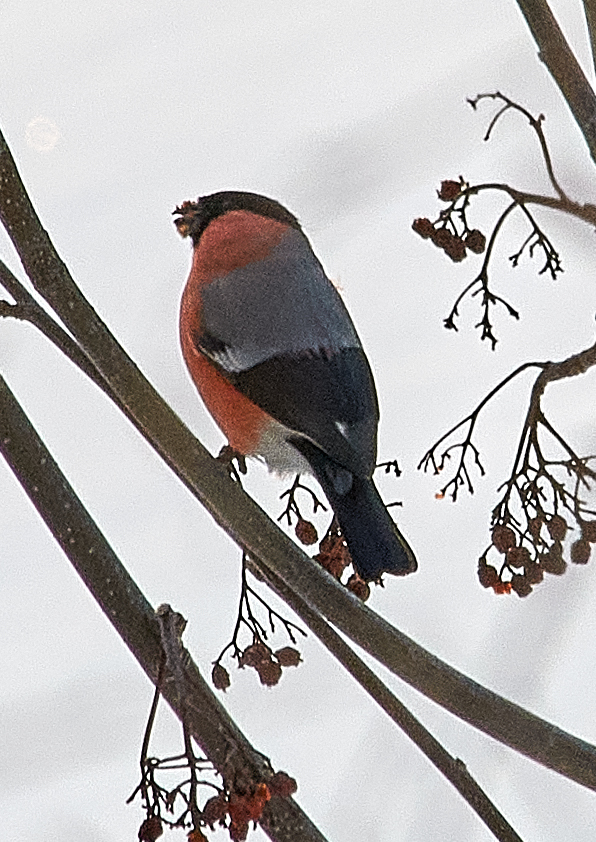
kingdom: Animalia
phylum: Chordata
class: Aves
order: Passeriformes
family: Fringillidae
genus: Pyrrhula
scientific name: Pyrrhula pyrrhula
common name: Eurasian bullfinch
